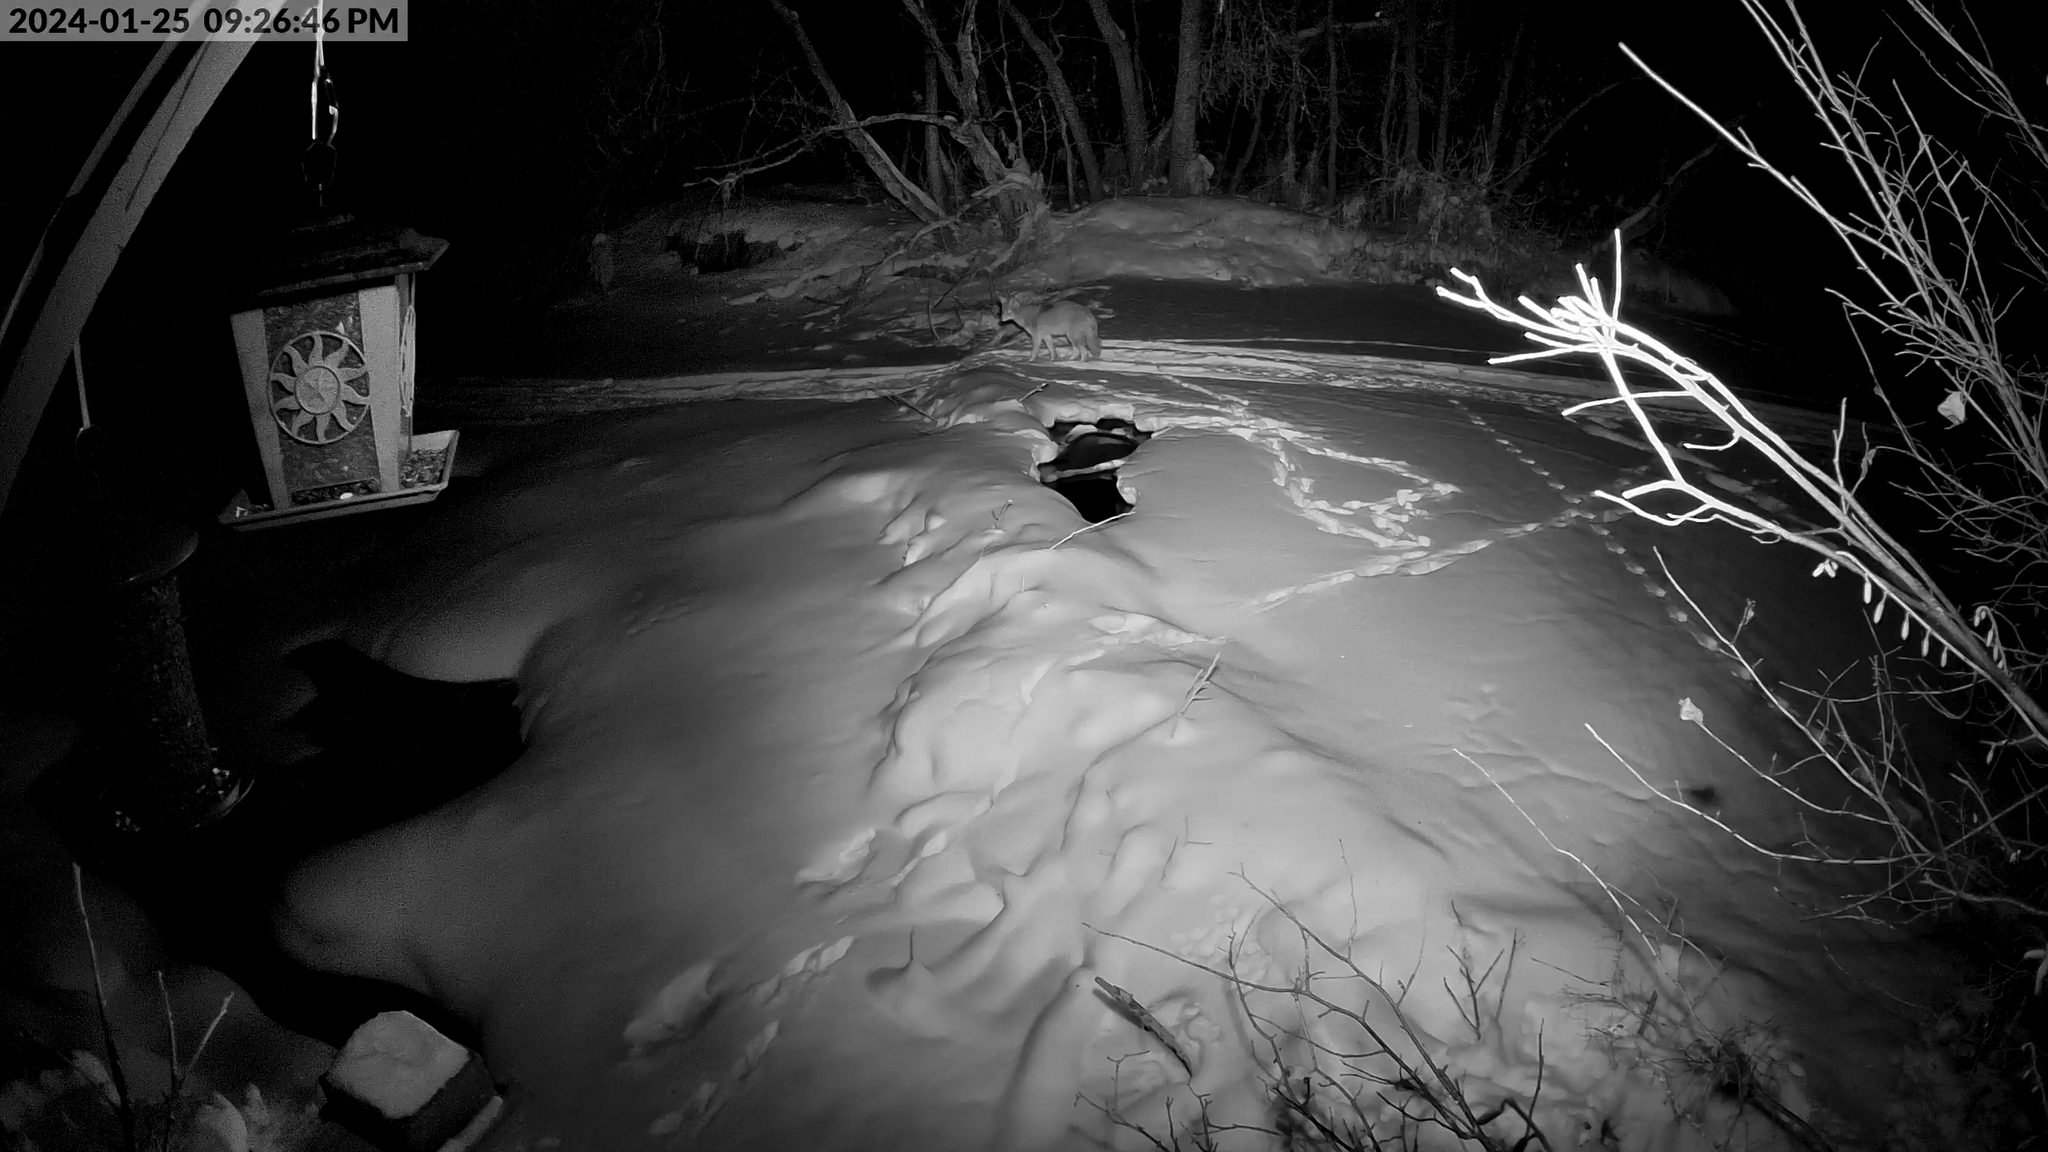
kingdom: Animalia
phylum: Chordata
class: Mammalia
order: Carnivora
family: Canidae
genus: Canis
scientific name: Canis latrans
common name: Coyote
